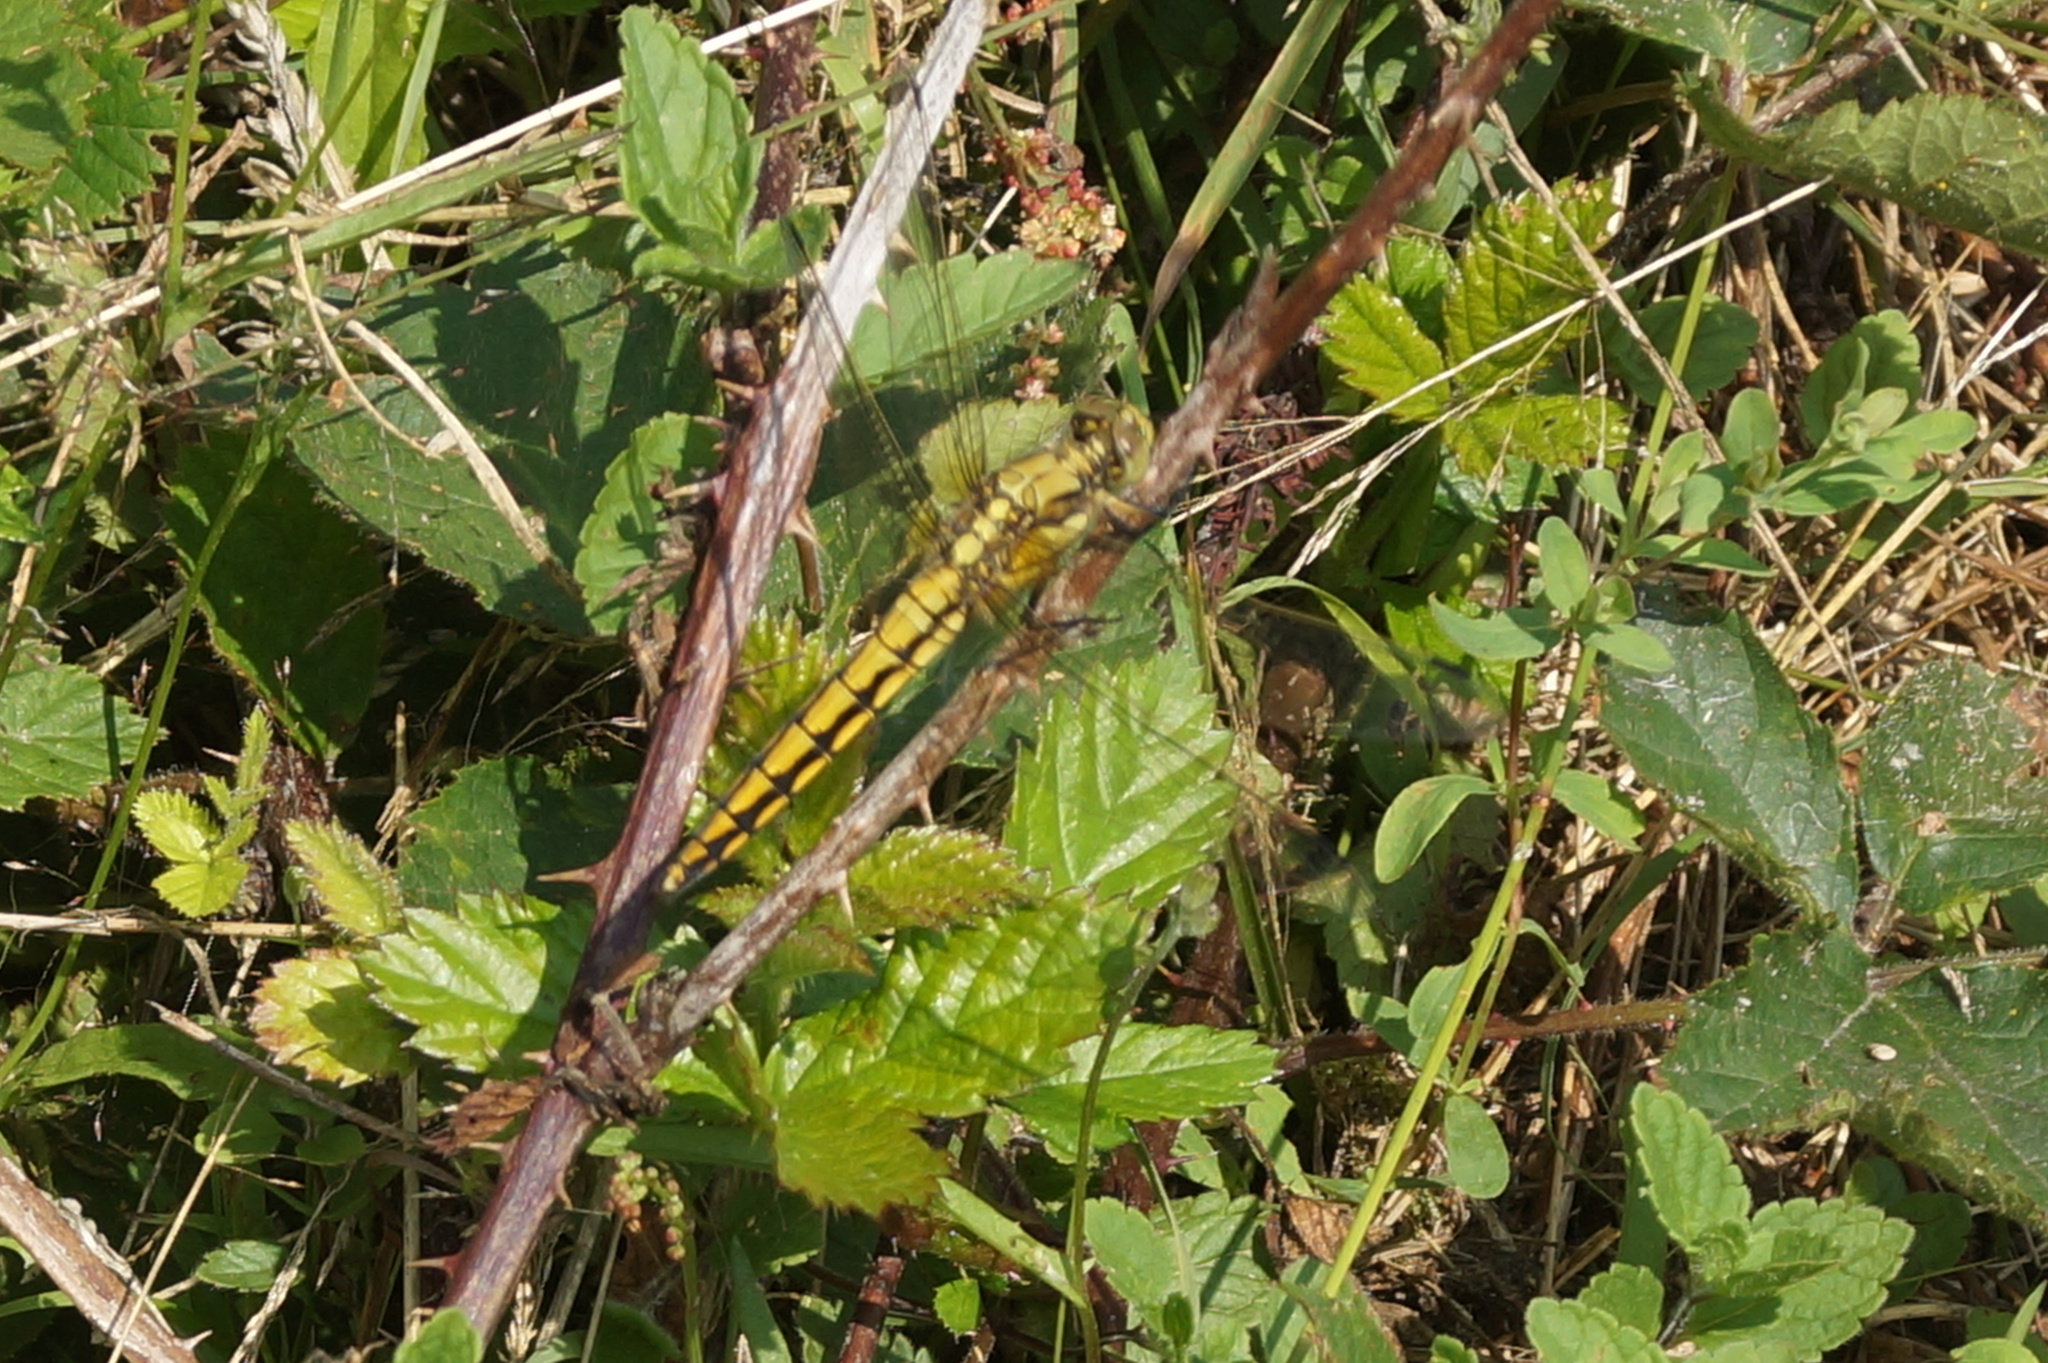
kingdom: Animalia
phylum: Arthropoda
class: Insecta
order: Odonata
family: Libellulidae
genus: Orthetrum
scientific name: Orthetrum cancellatum
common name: Black-tailed skimmer
